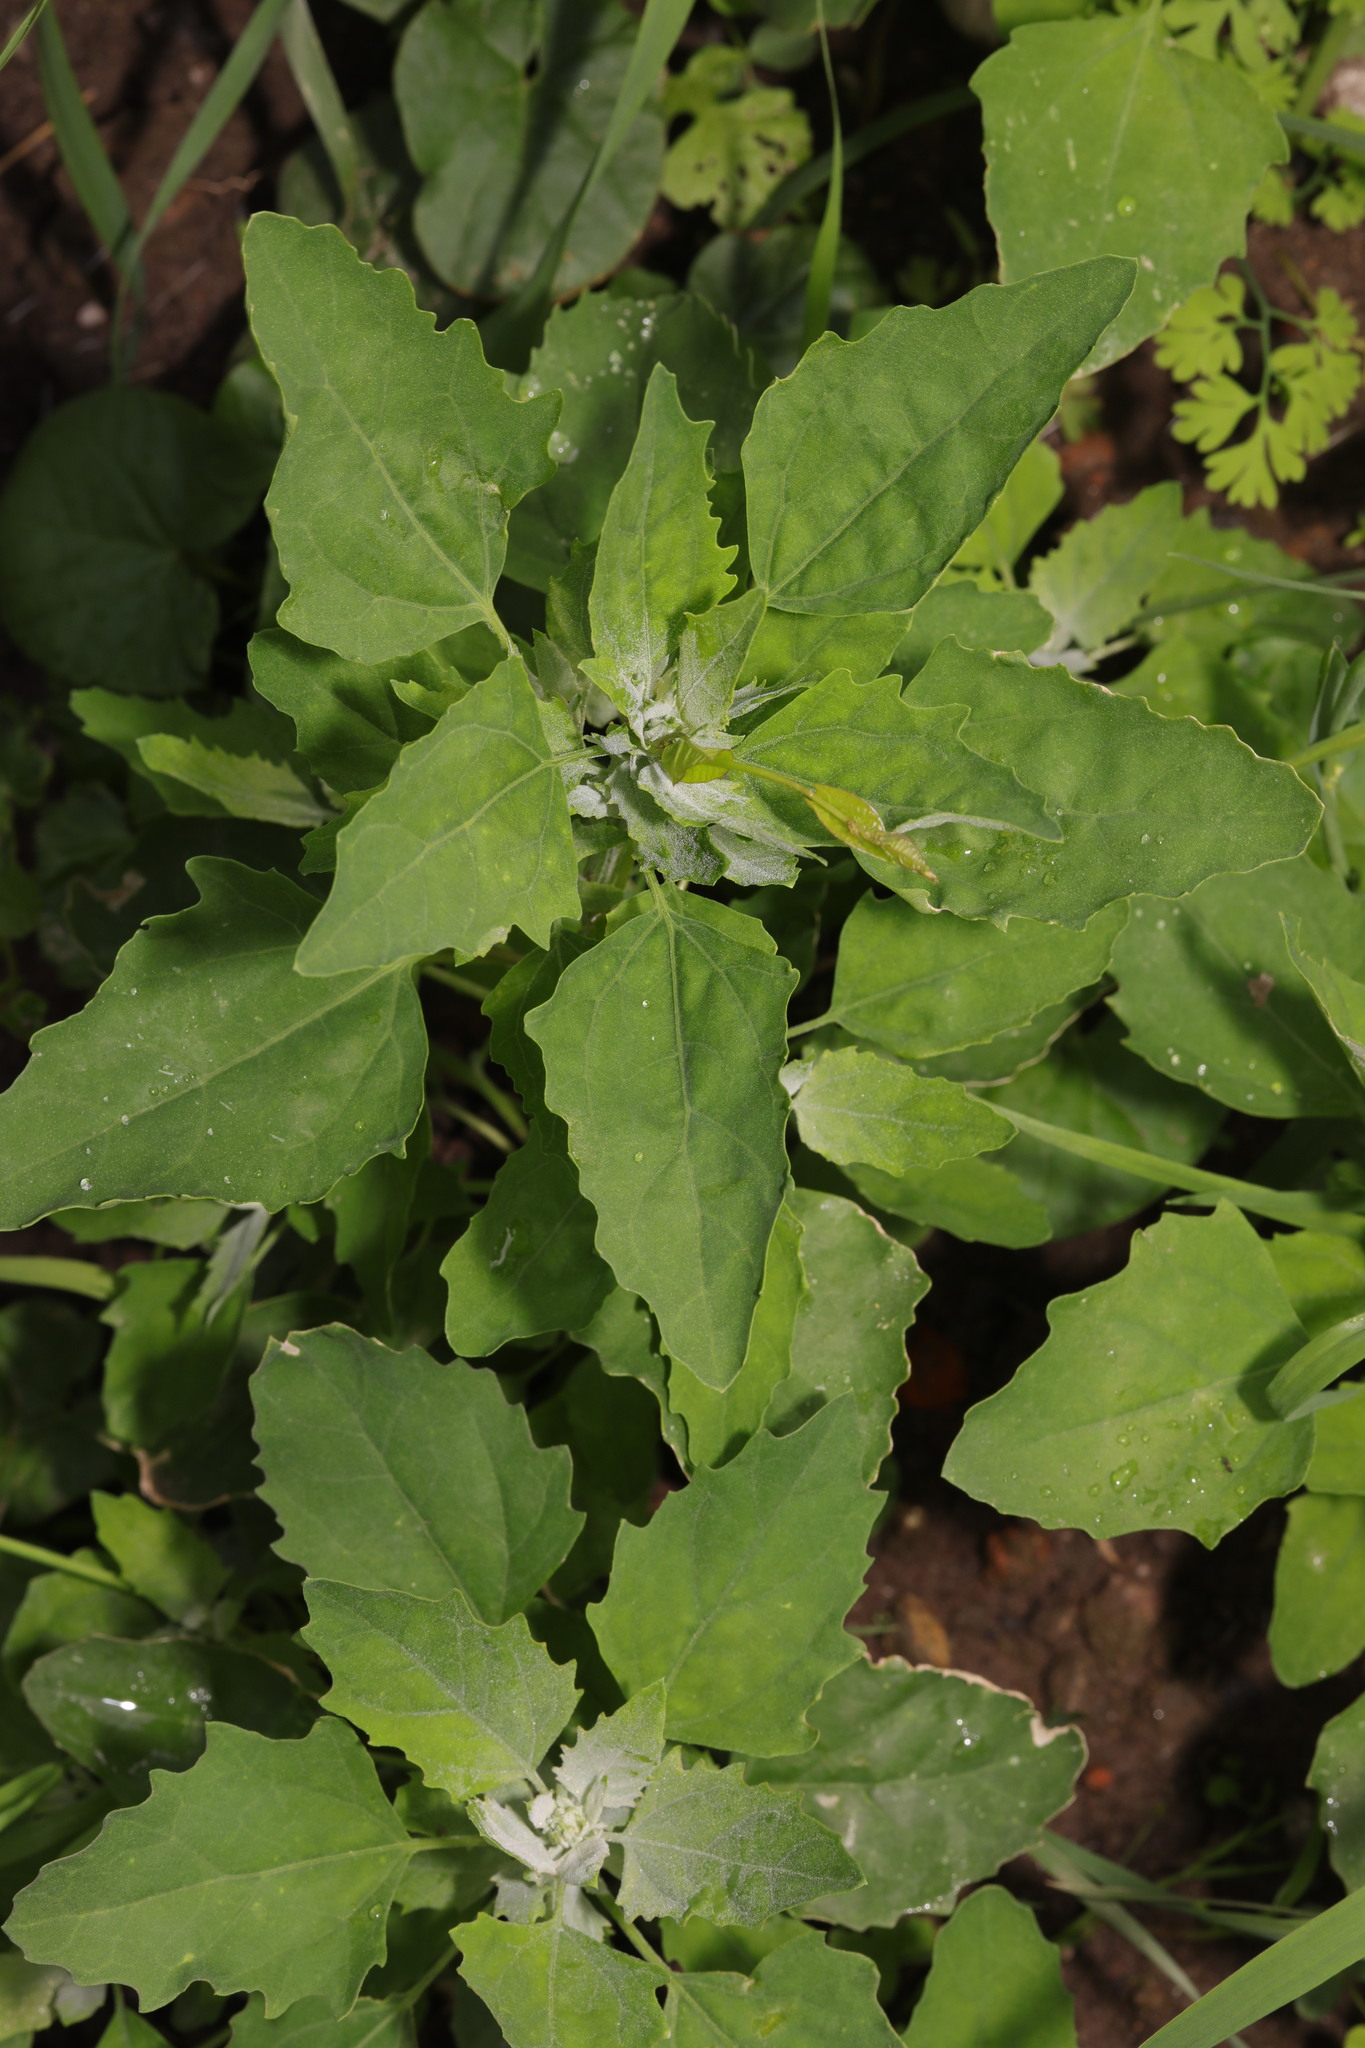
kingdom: Plantae
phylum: Tracheophyta
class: Magnoliopsida
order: Caryophyllales
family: Amaranthaceae
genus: Chenopodium
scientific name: Chenopodium album
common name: Fat-hen
